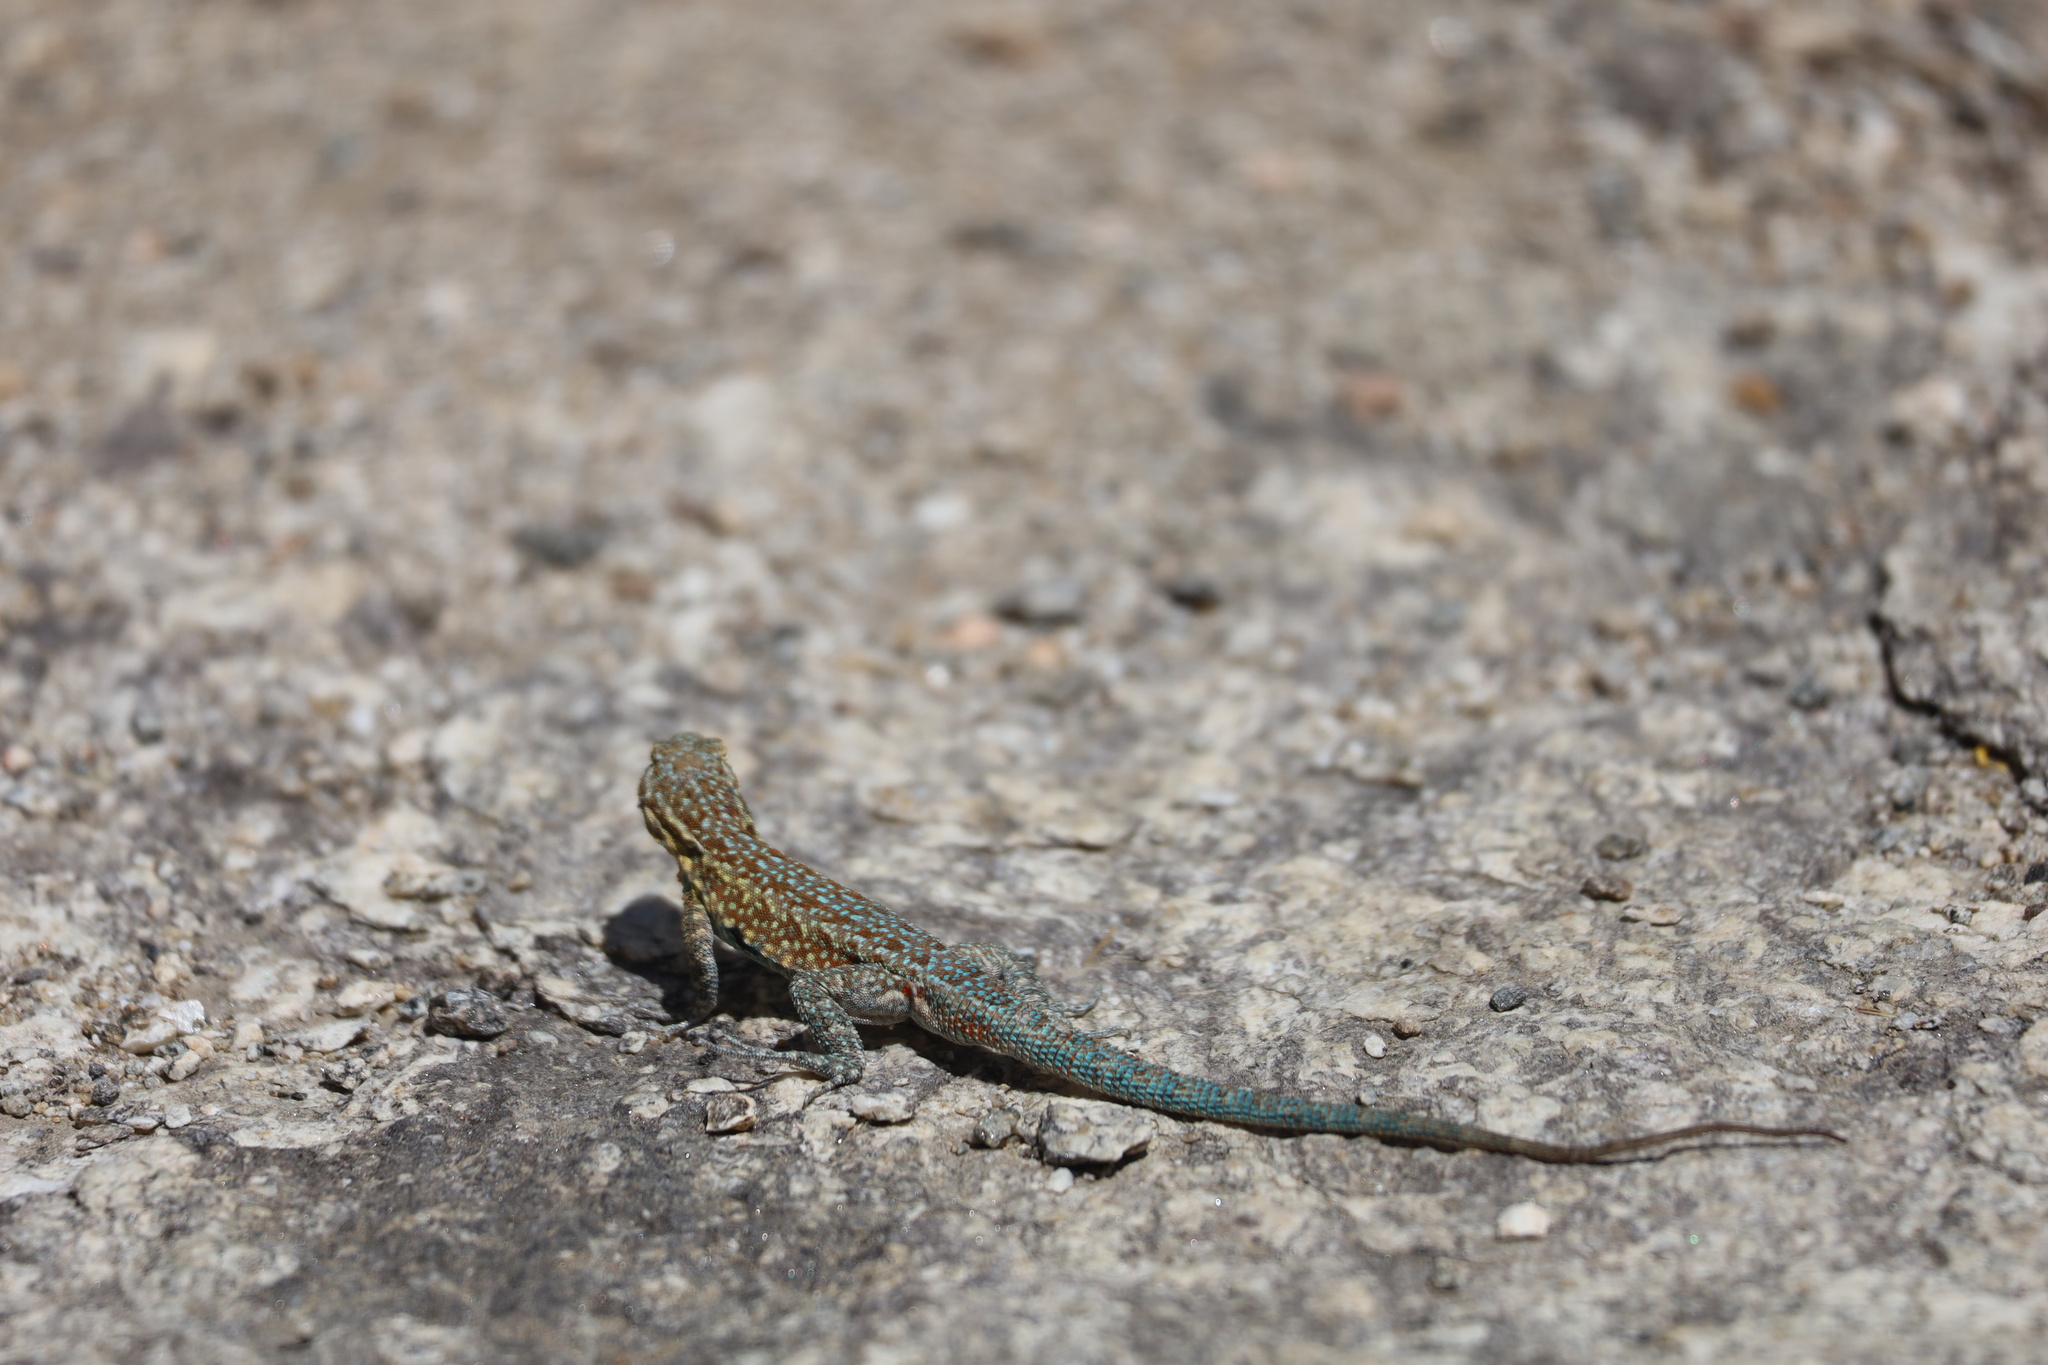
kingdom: Animalia
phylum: Chordata
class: Squamata
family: Phrynosomatidae
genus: Uta
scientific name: Uta stansburiana
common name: Side-blotched lizard
